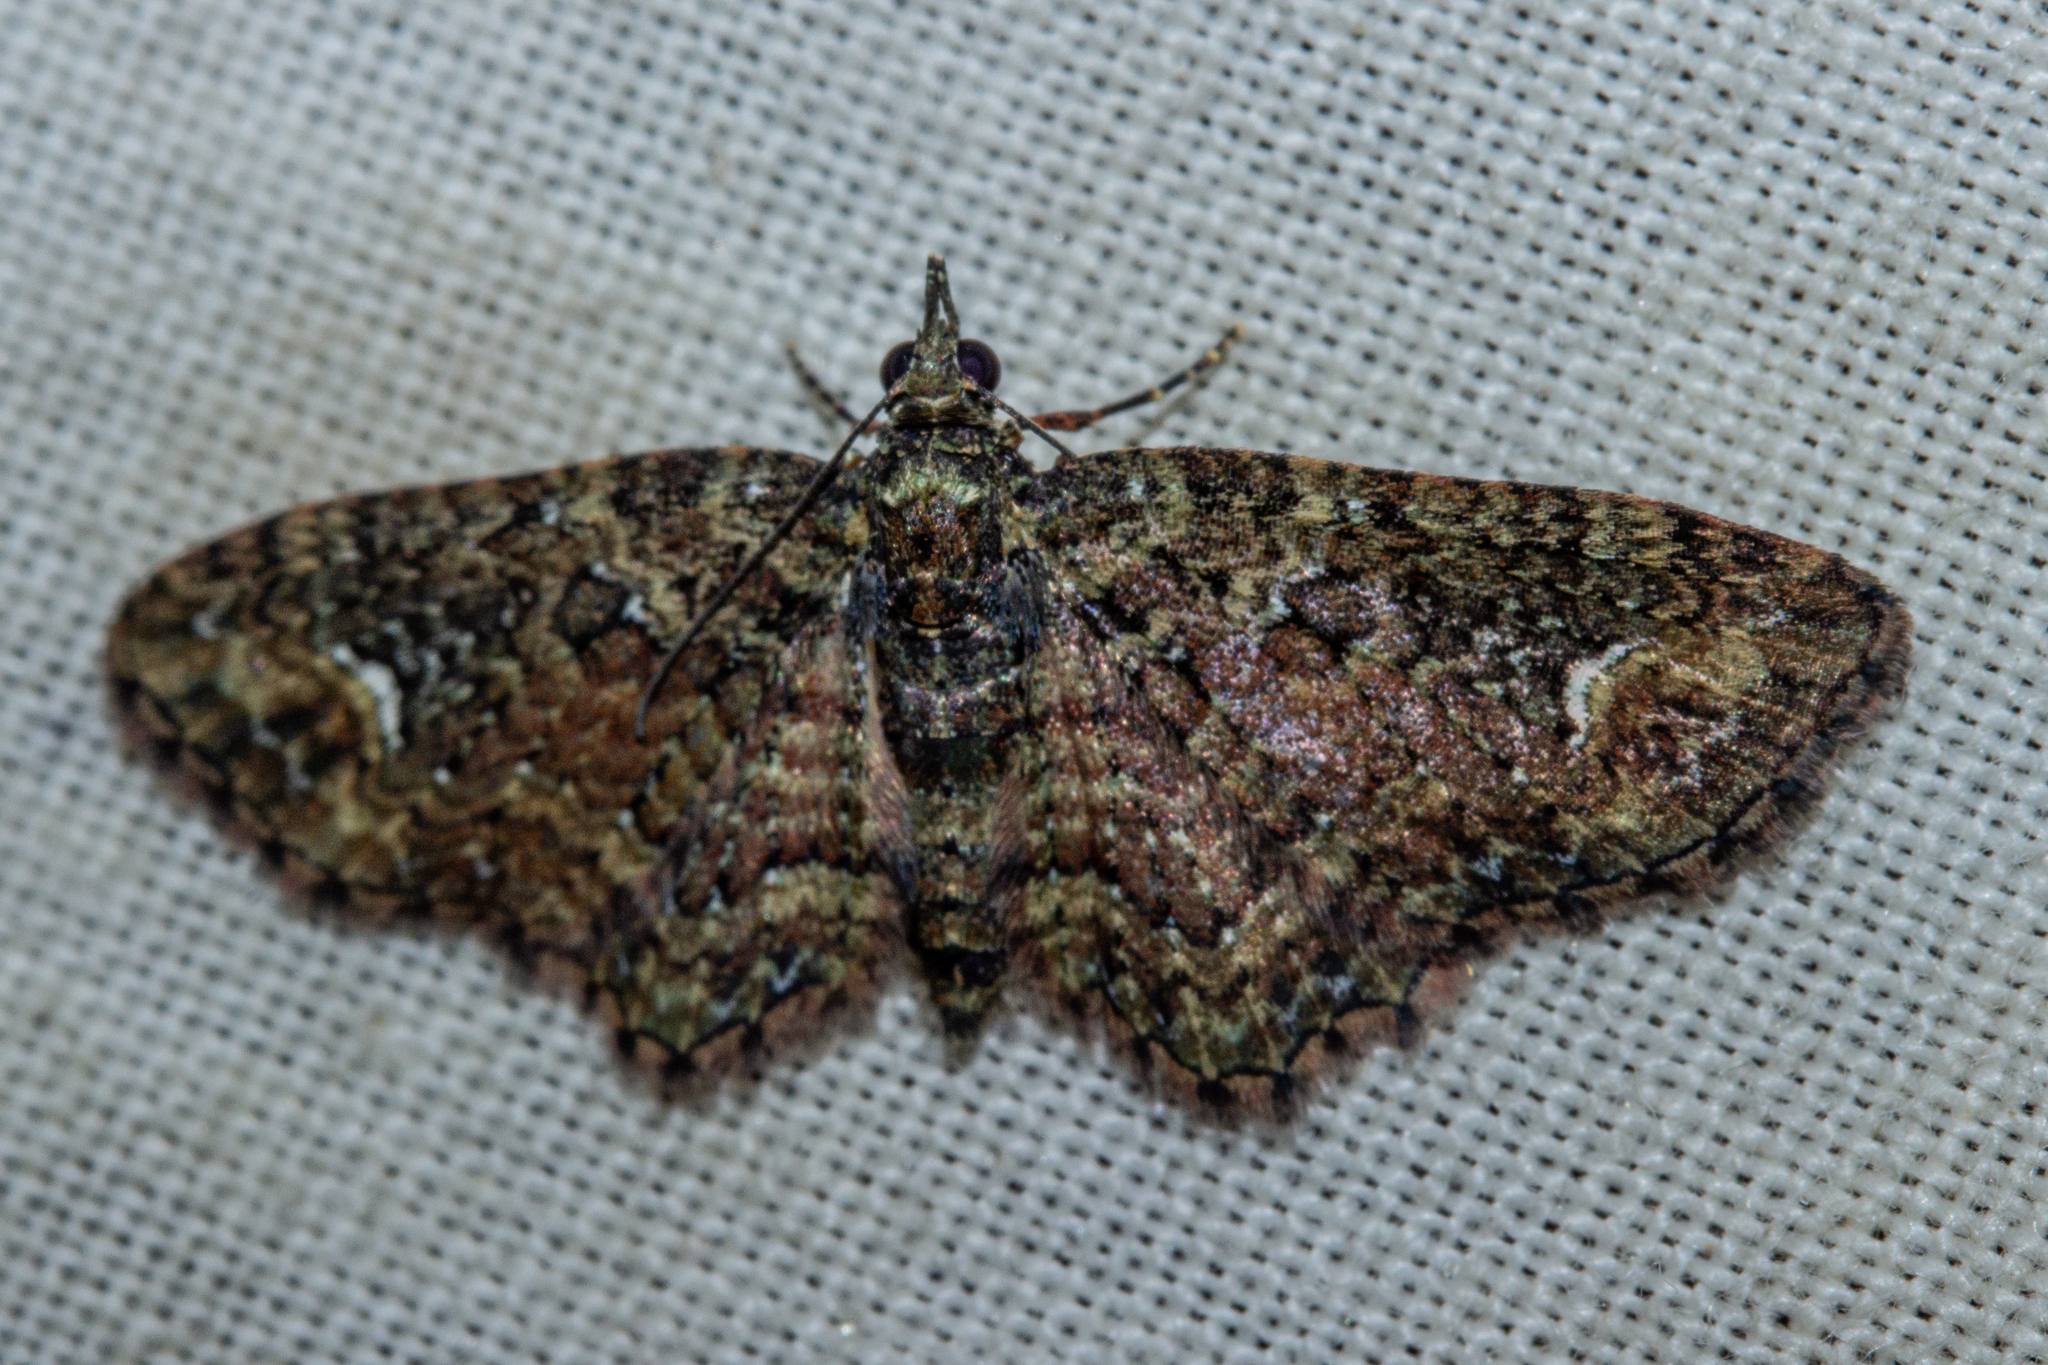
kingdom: Animalia
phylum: Arthropoda
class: Insecta
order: Lepidoptera
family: Geometridae
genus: Pasiphilodes
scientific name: Pasiphilodes testulata
